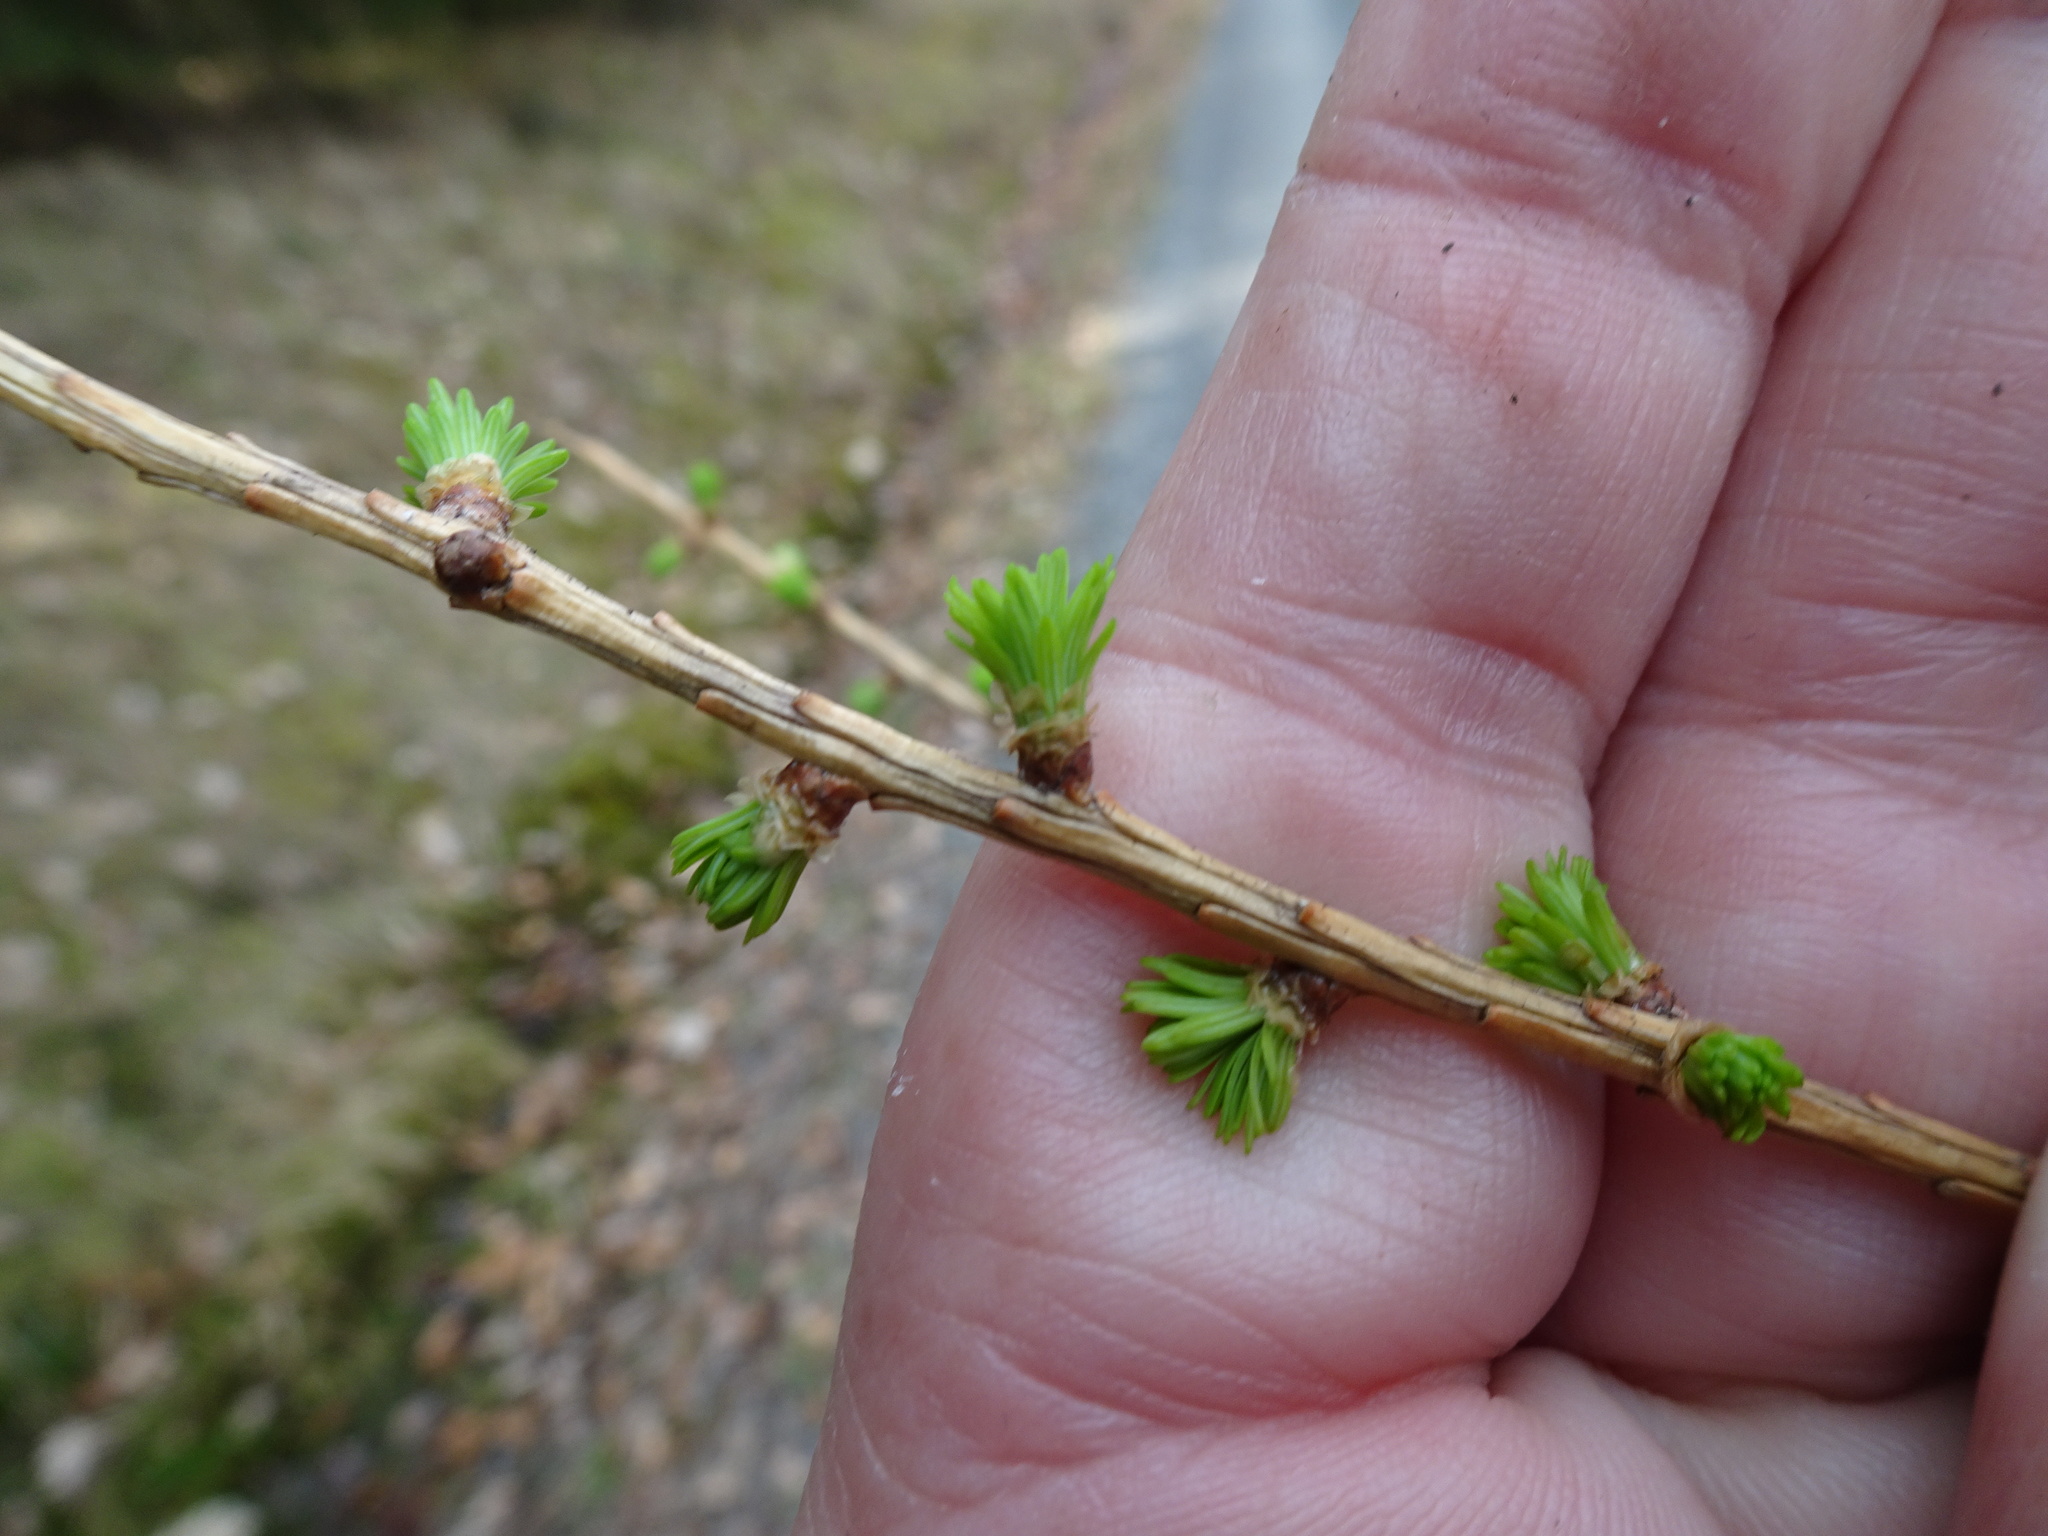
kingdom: Plantae
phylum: Tracheophyta
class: Pinopsida
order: Pinales
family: Pinaceae
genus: Larix
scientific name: Larix decidua
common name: European larch
